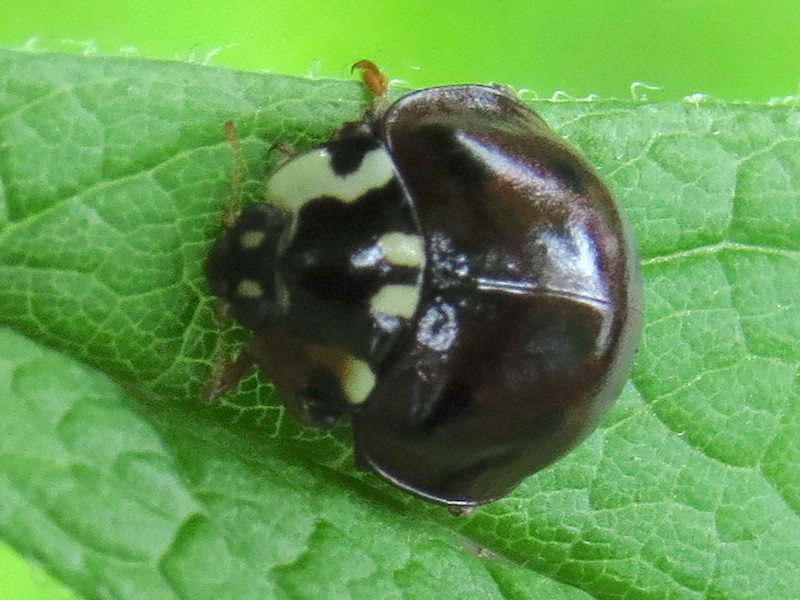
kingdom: Animalia
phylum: Arthropoda
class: Insecta
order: Coleoptera
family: Coccinellidae
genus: Anatis
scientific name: Anatis labiculata
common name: Fifteen-spotted lady beetle
